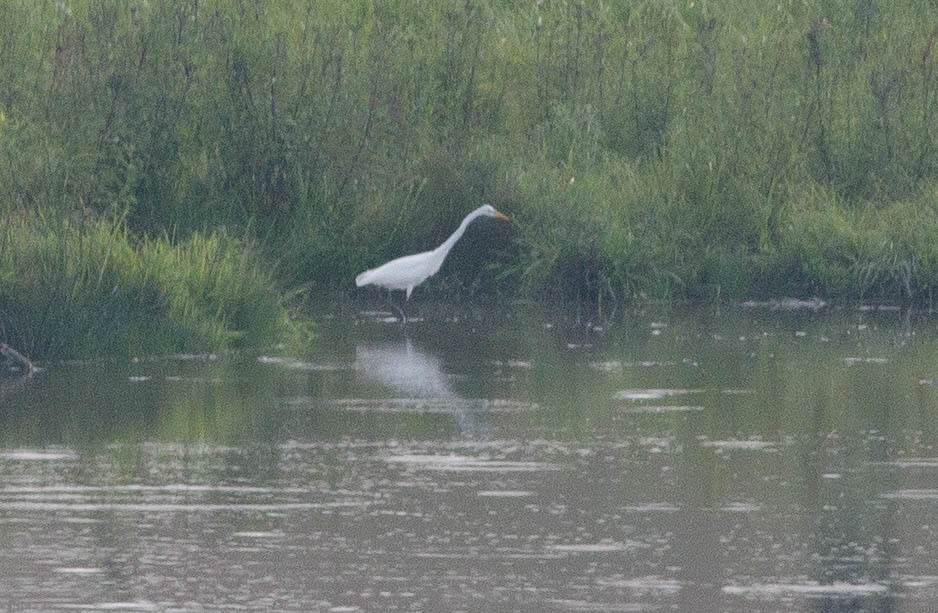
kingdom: Animalia
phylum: Chordata
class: Aves
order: Pelecaniformes
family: Ardeidae
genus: Ardea
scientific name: Ardea alba
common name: Great egret
